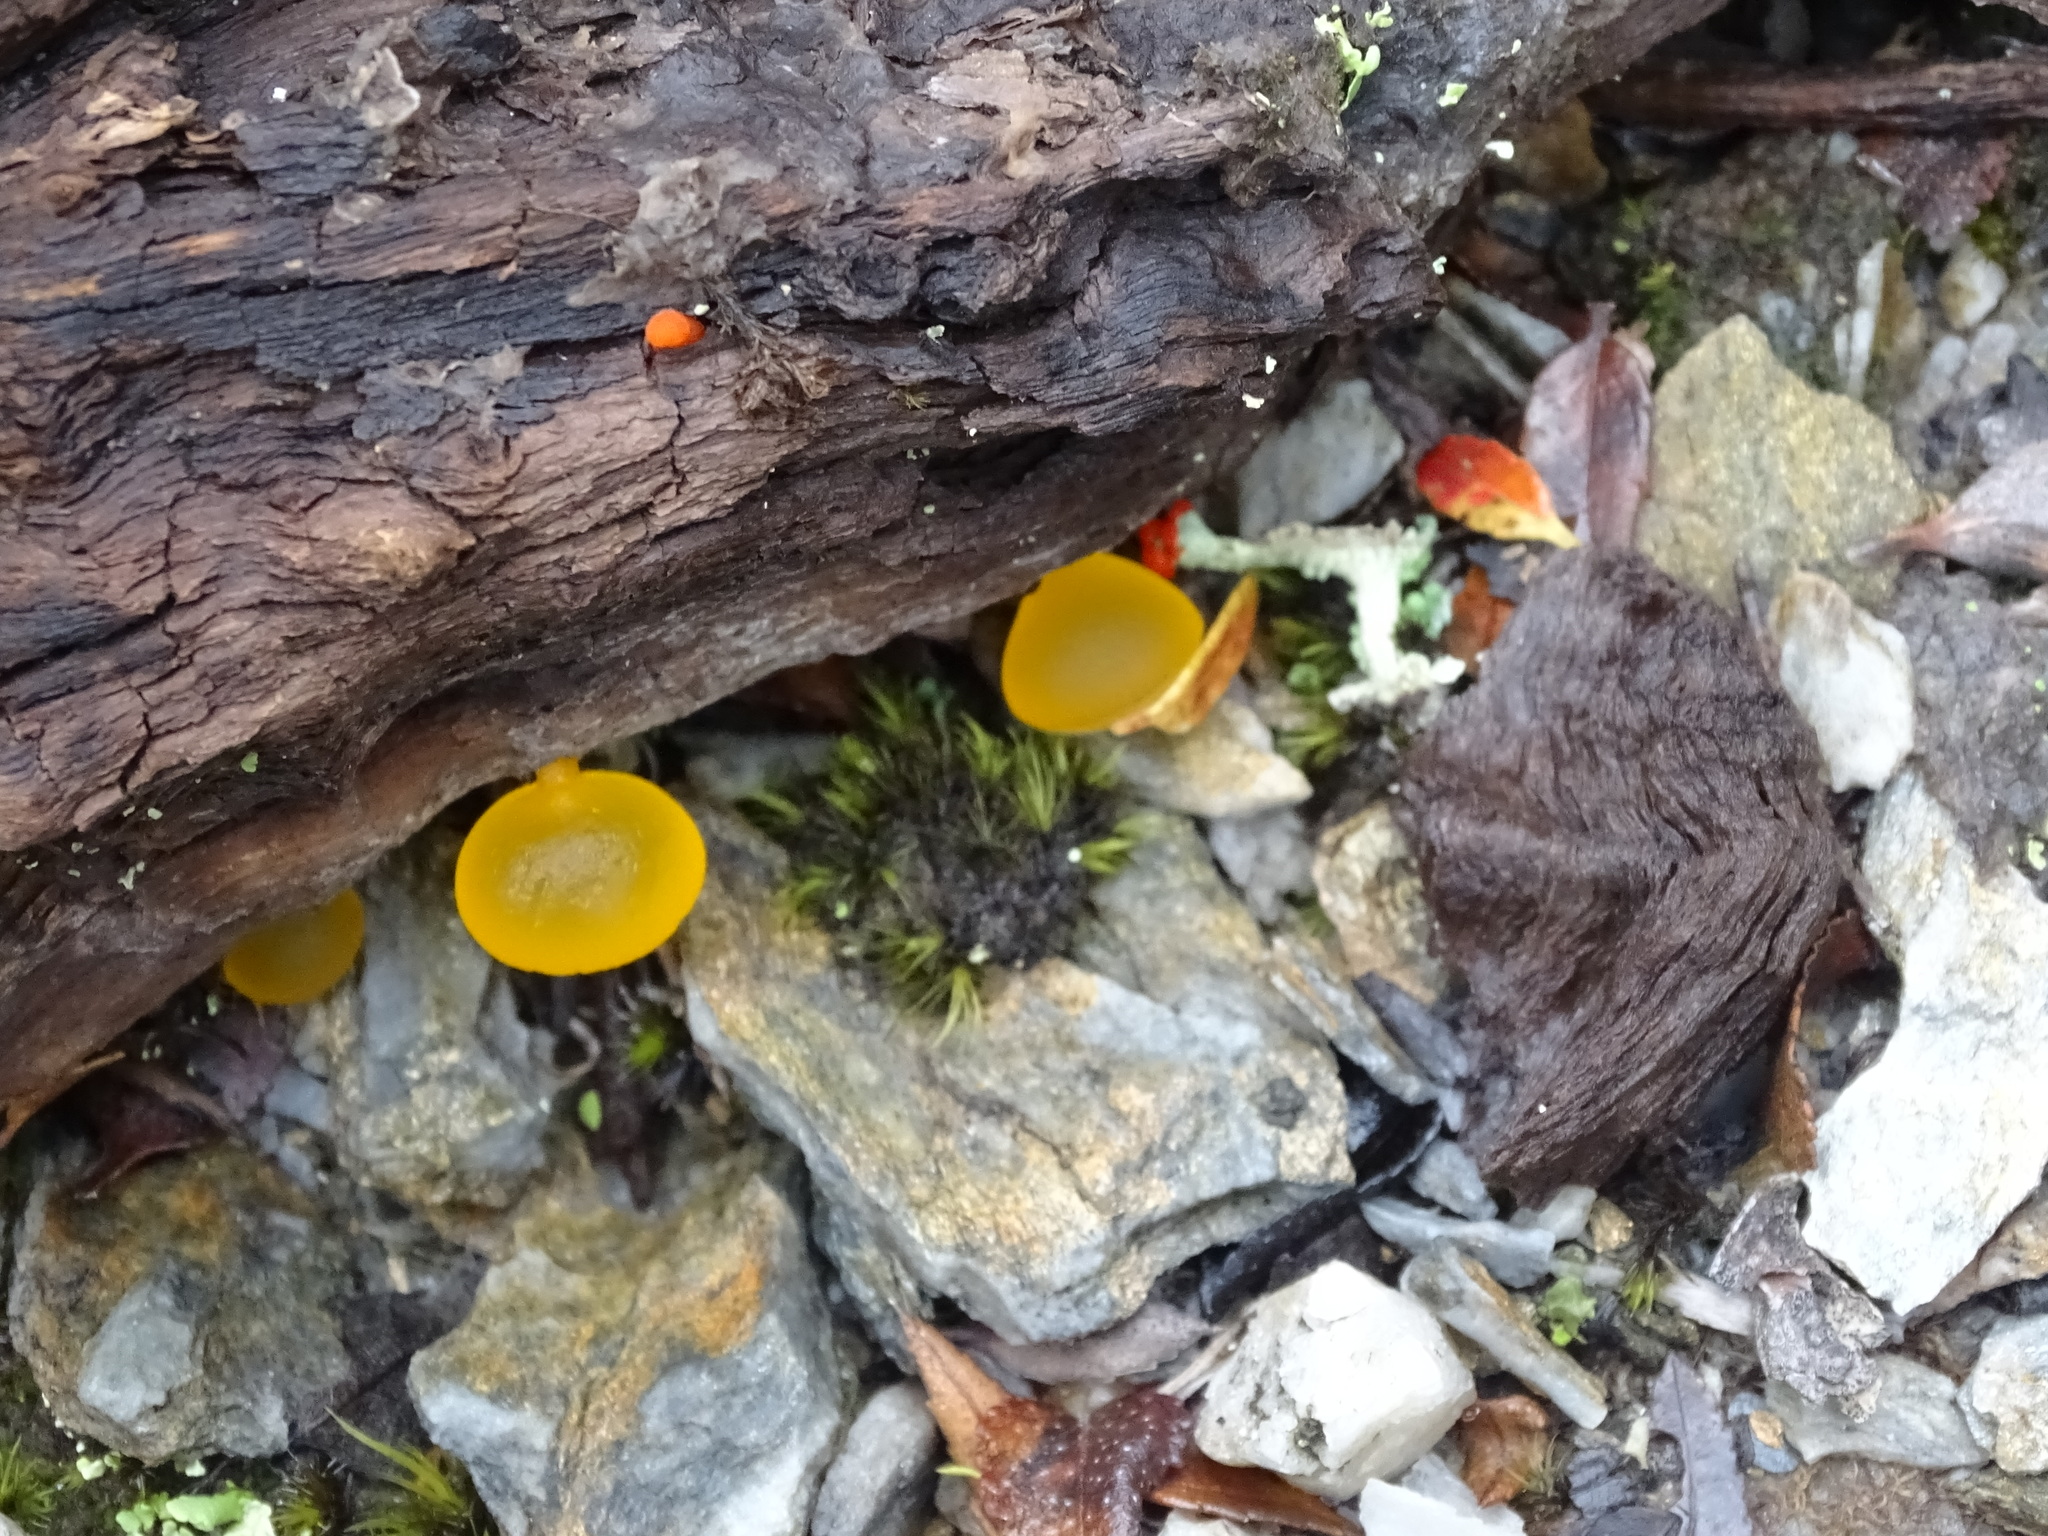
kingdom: Fungi
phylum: Basidiomycota
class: Dacrymycetes
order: Dacrymycetales
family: Dacrymycetaceae
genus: Guepiniopsis
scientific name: Guepiniopsis alpina
